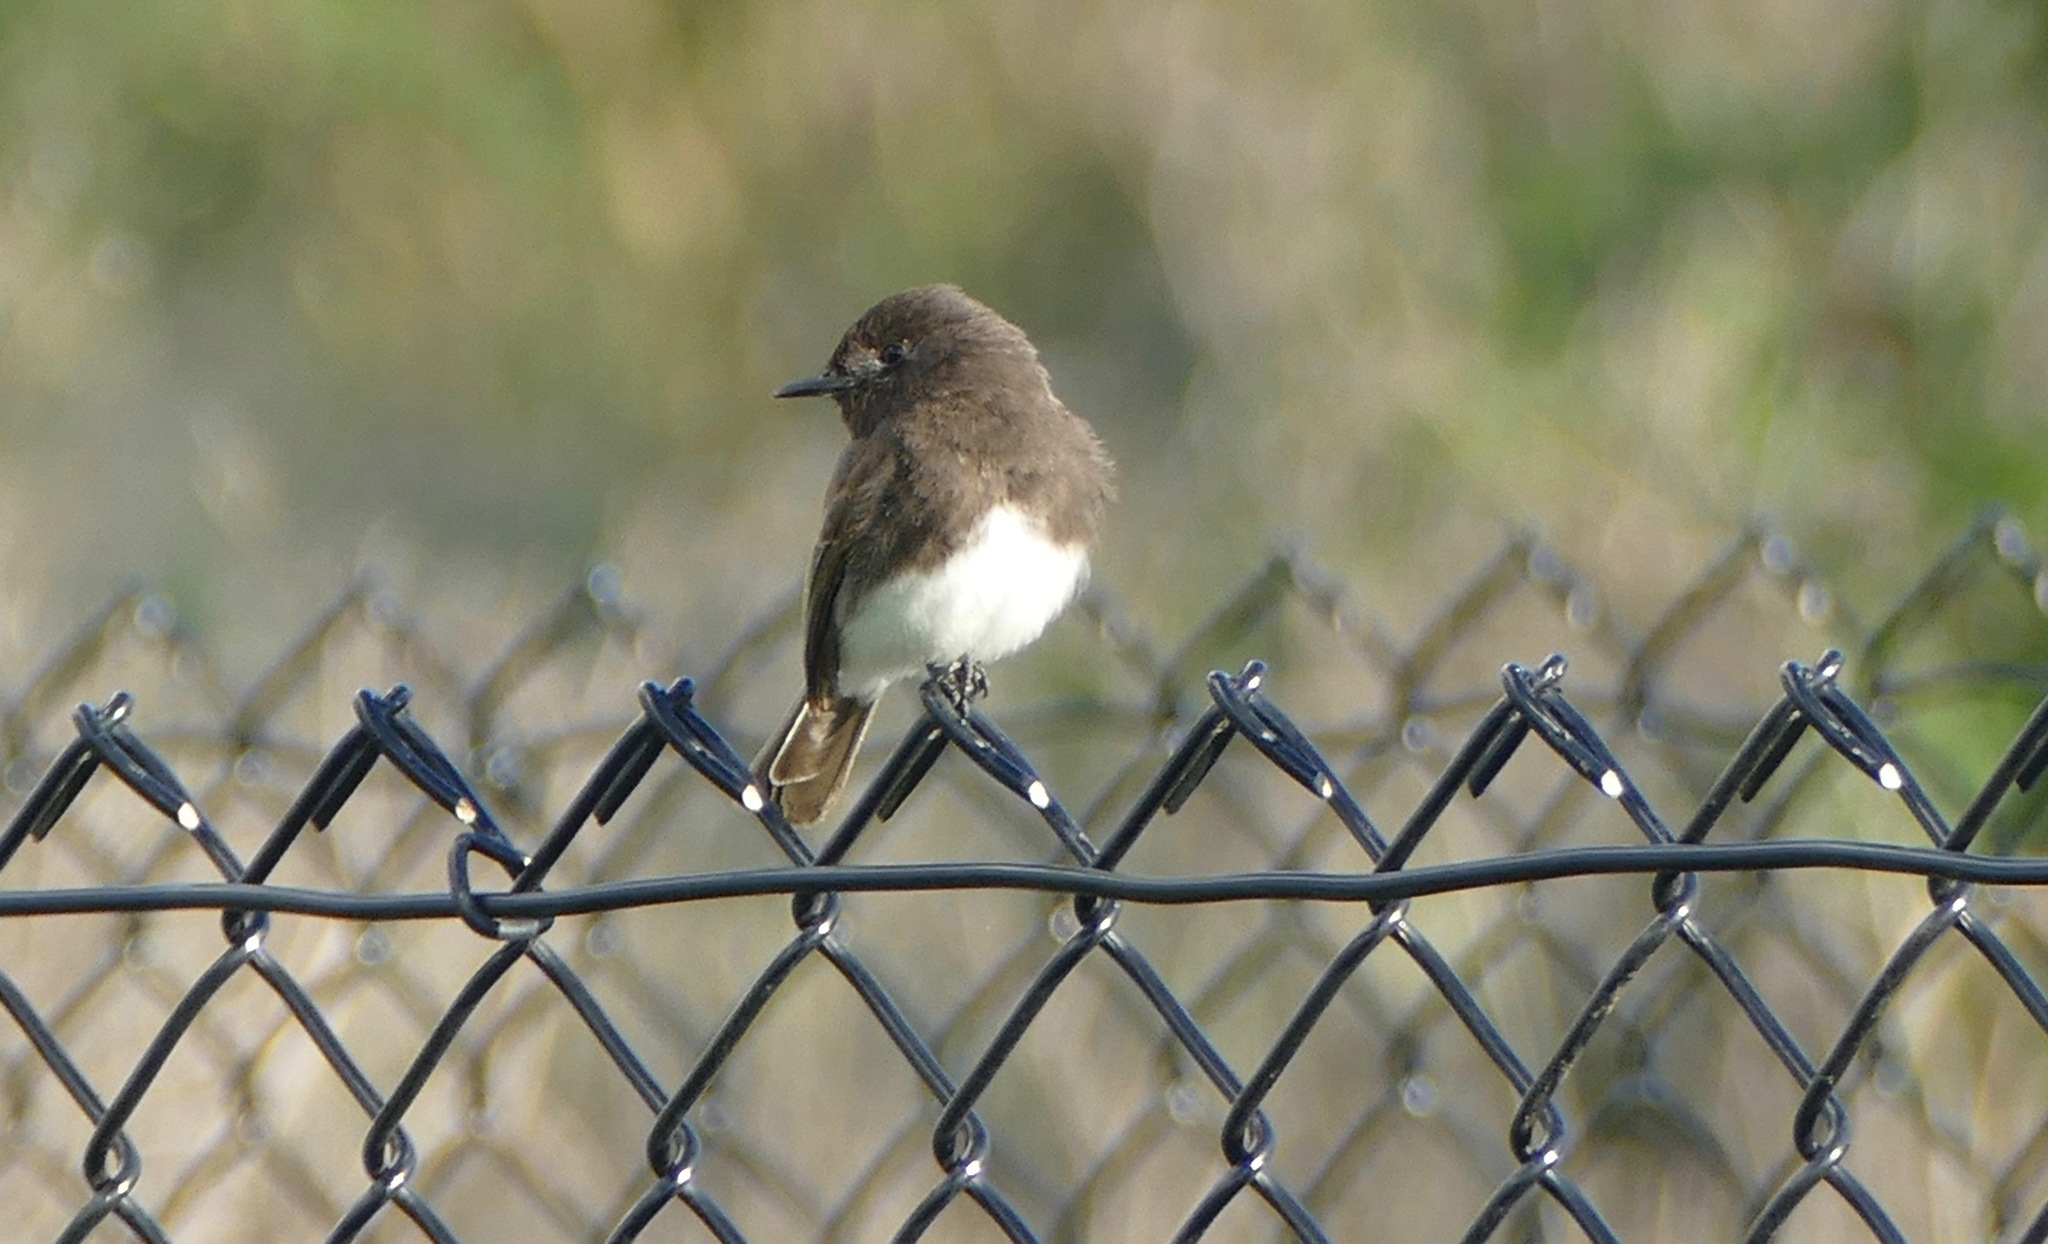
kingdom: Animalia
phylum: Chordata
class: Aves
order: Passeriformes
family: Tyrannidae
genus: Sayornis
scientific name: Sayornis nigricans
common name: Black phoebe
